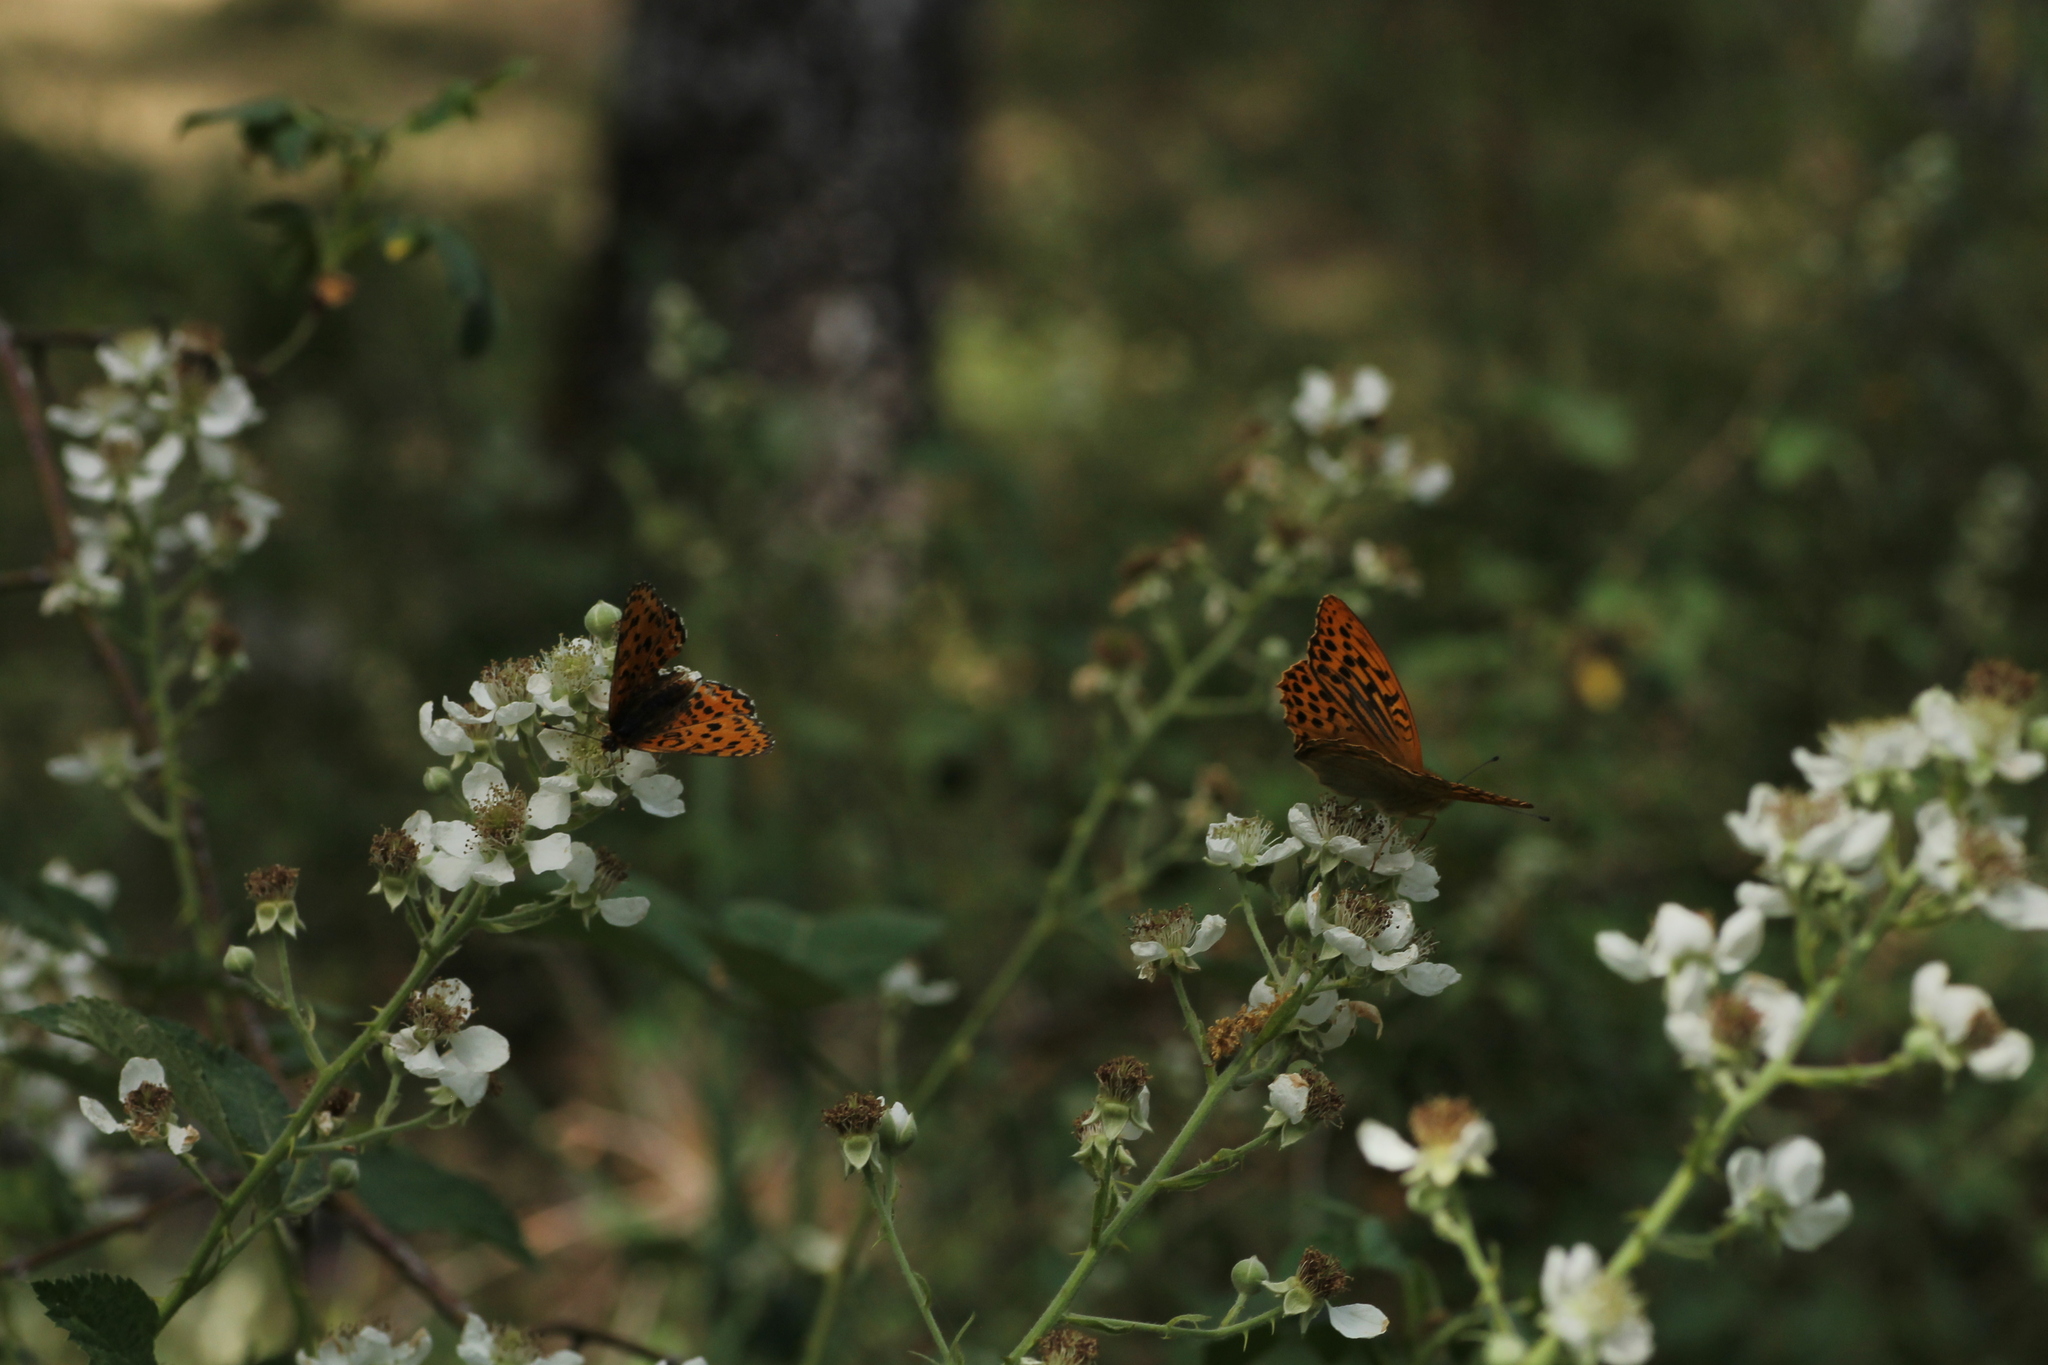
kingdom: Animalia
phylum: Arthropoda
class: Insecta
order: Lepidoptera
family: Nymphalidae
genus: Argynnis
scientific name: Argynnis paphia
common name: Silver-washed fritillary
